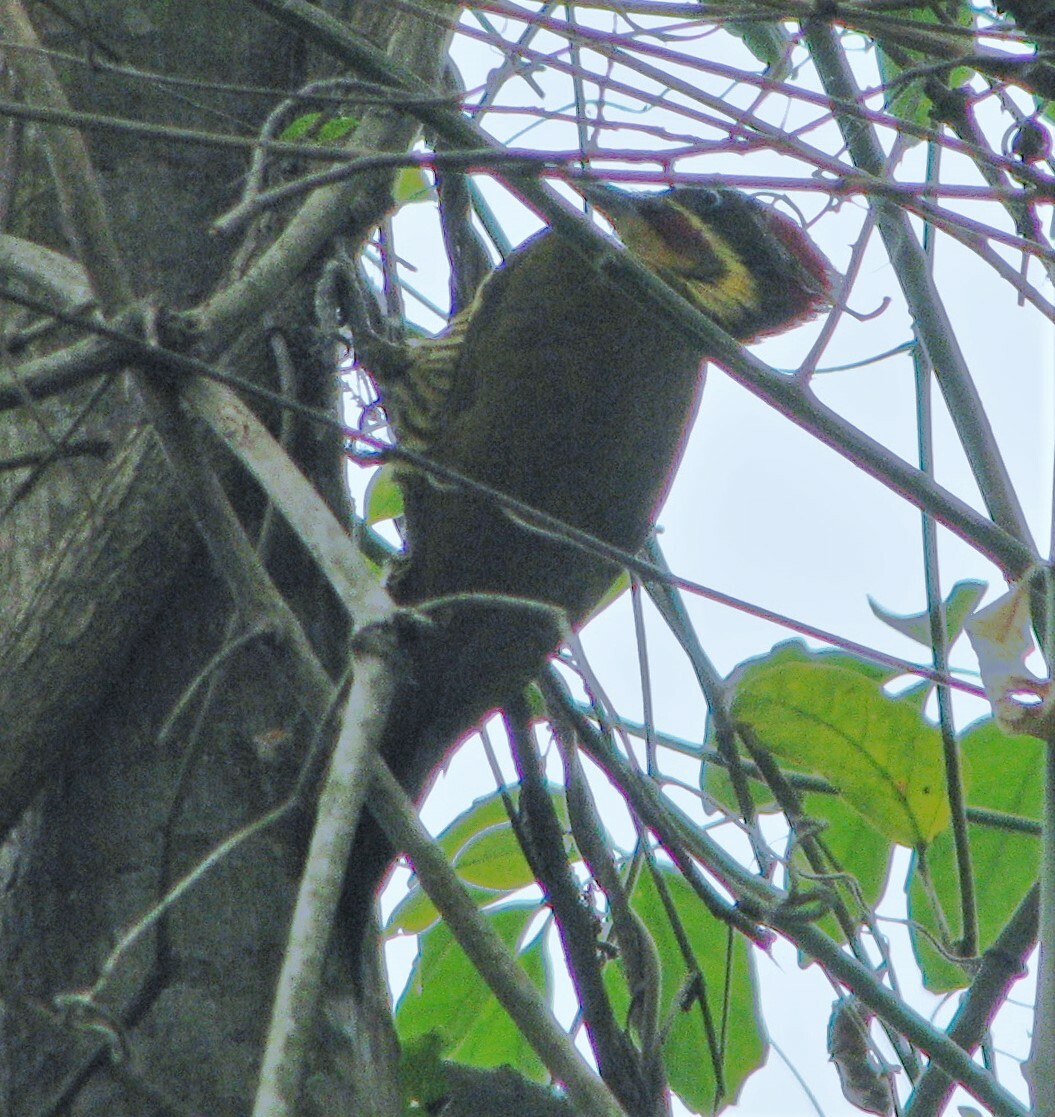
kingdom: Animalia
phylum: Chordata
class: Aves
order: Piciformes
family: Picidae
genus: Piculus
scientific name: Piculus chrysochloros
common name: Golden-green woodpecker
